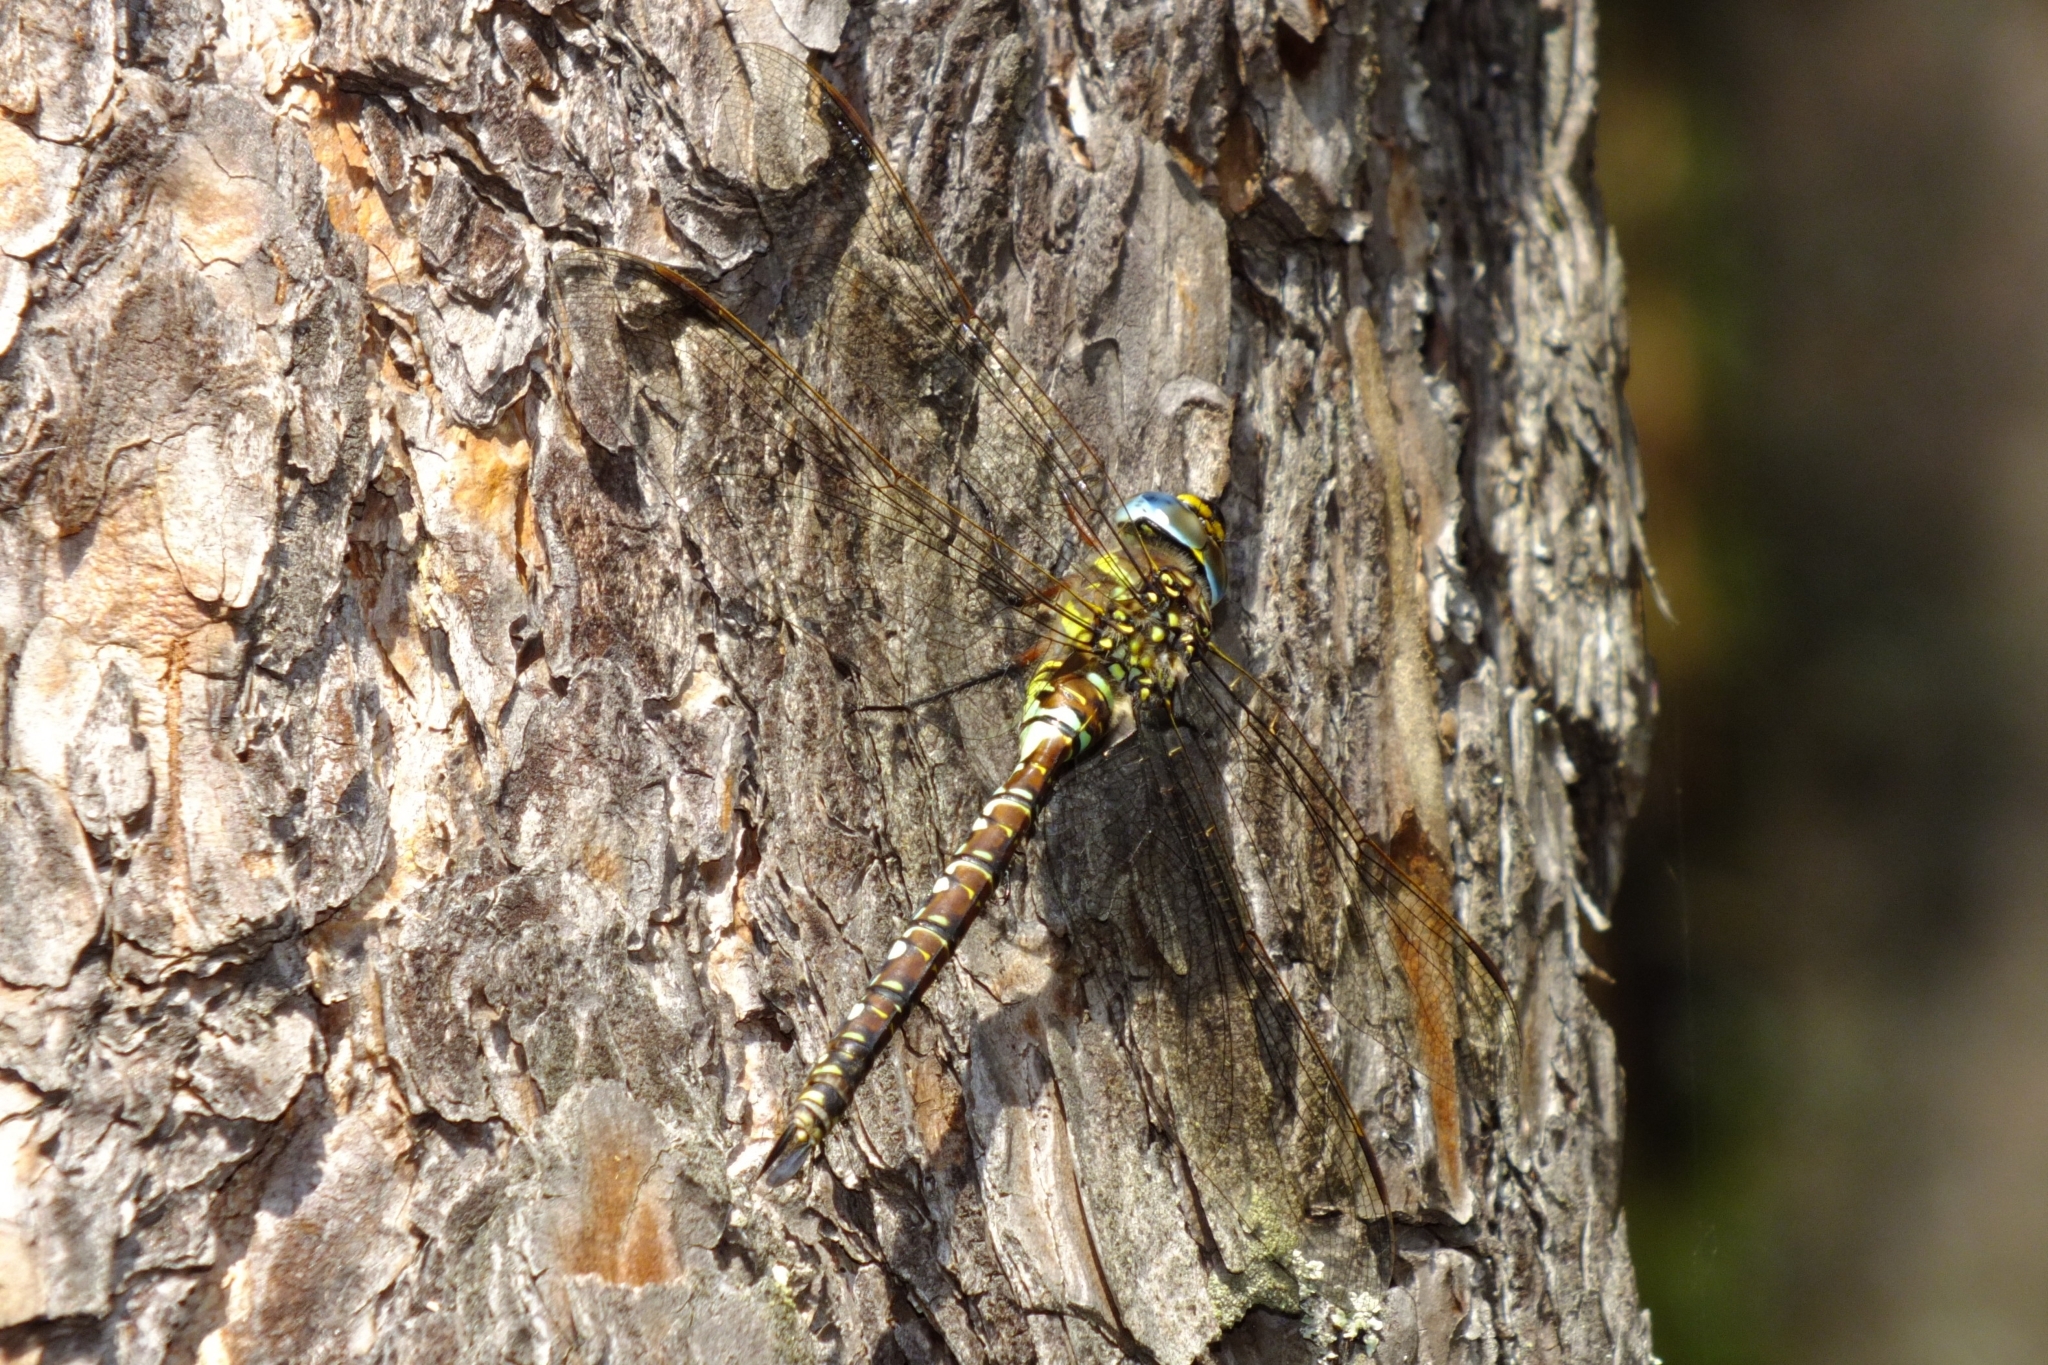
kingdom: Animalia
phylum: Arthropoda
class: Insecta
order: Odonata
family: Aeshnidae
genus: Aeshna
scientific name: Aeshna juncea
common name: Moorland hawker
